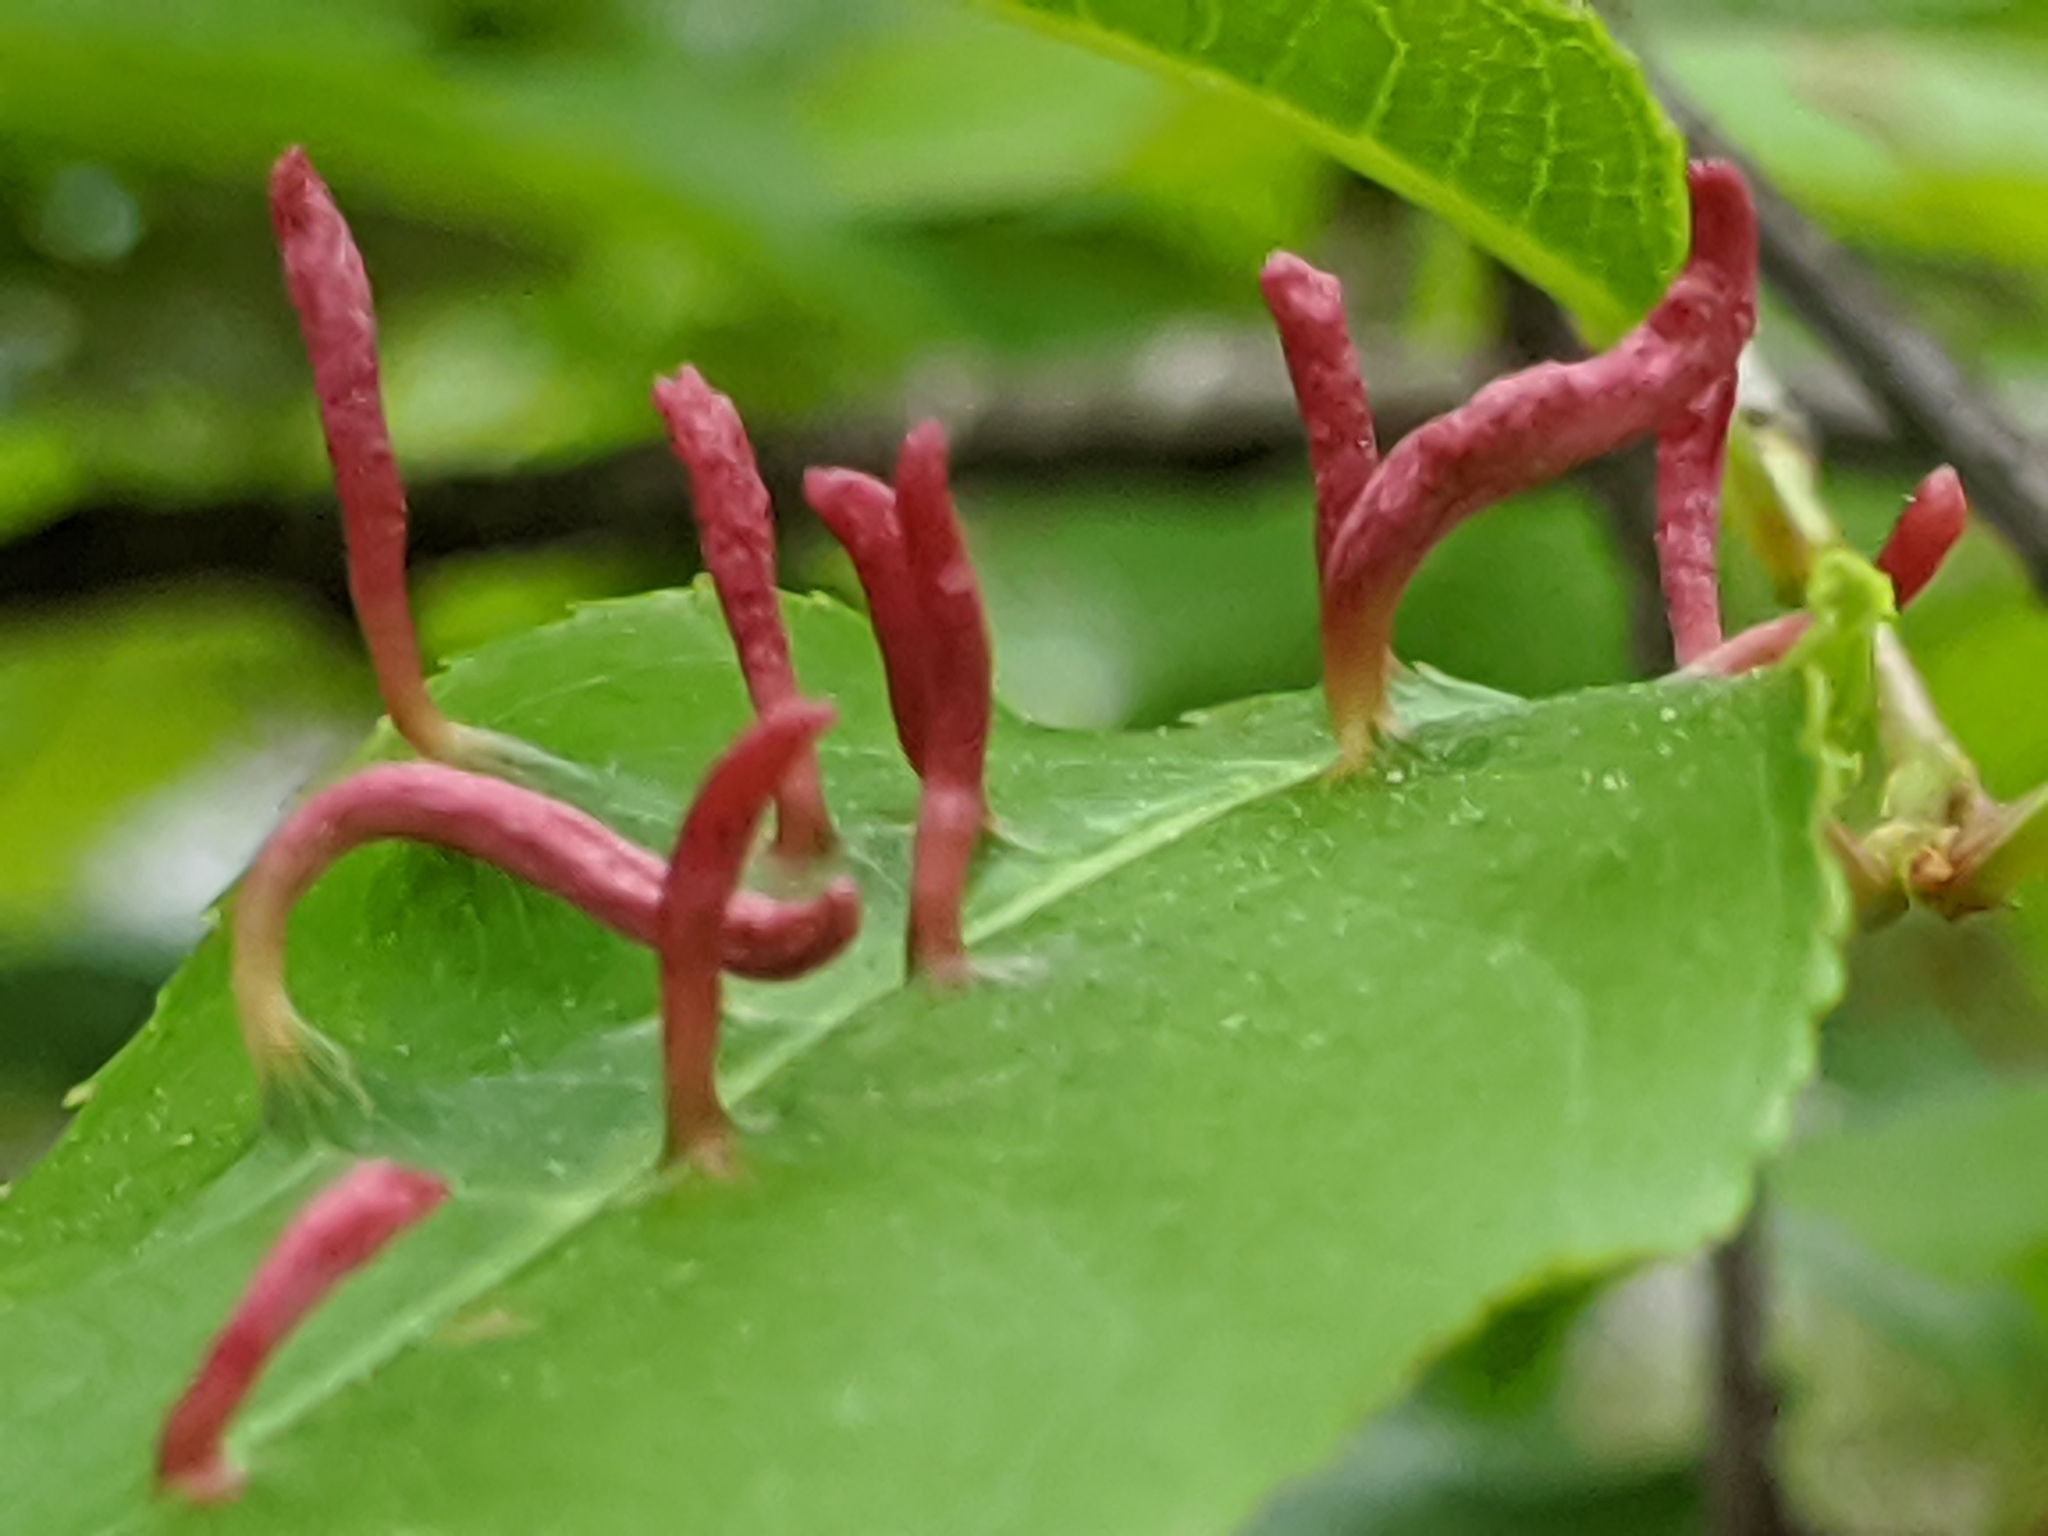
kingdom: Animalia
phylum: Arthropoda
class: Arachnida
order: Trombidiformes
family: Eriophyidae
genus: Eriophyes
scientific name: Eriophyes
